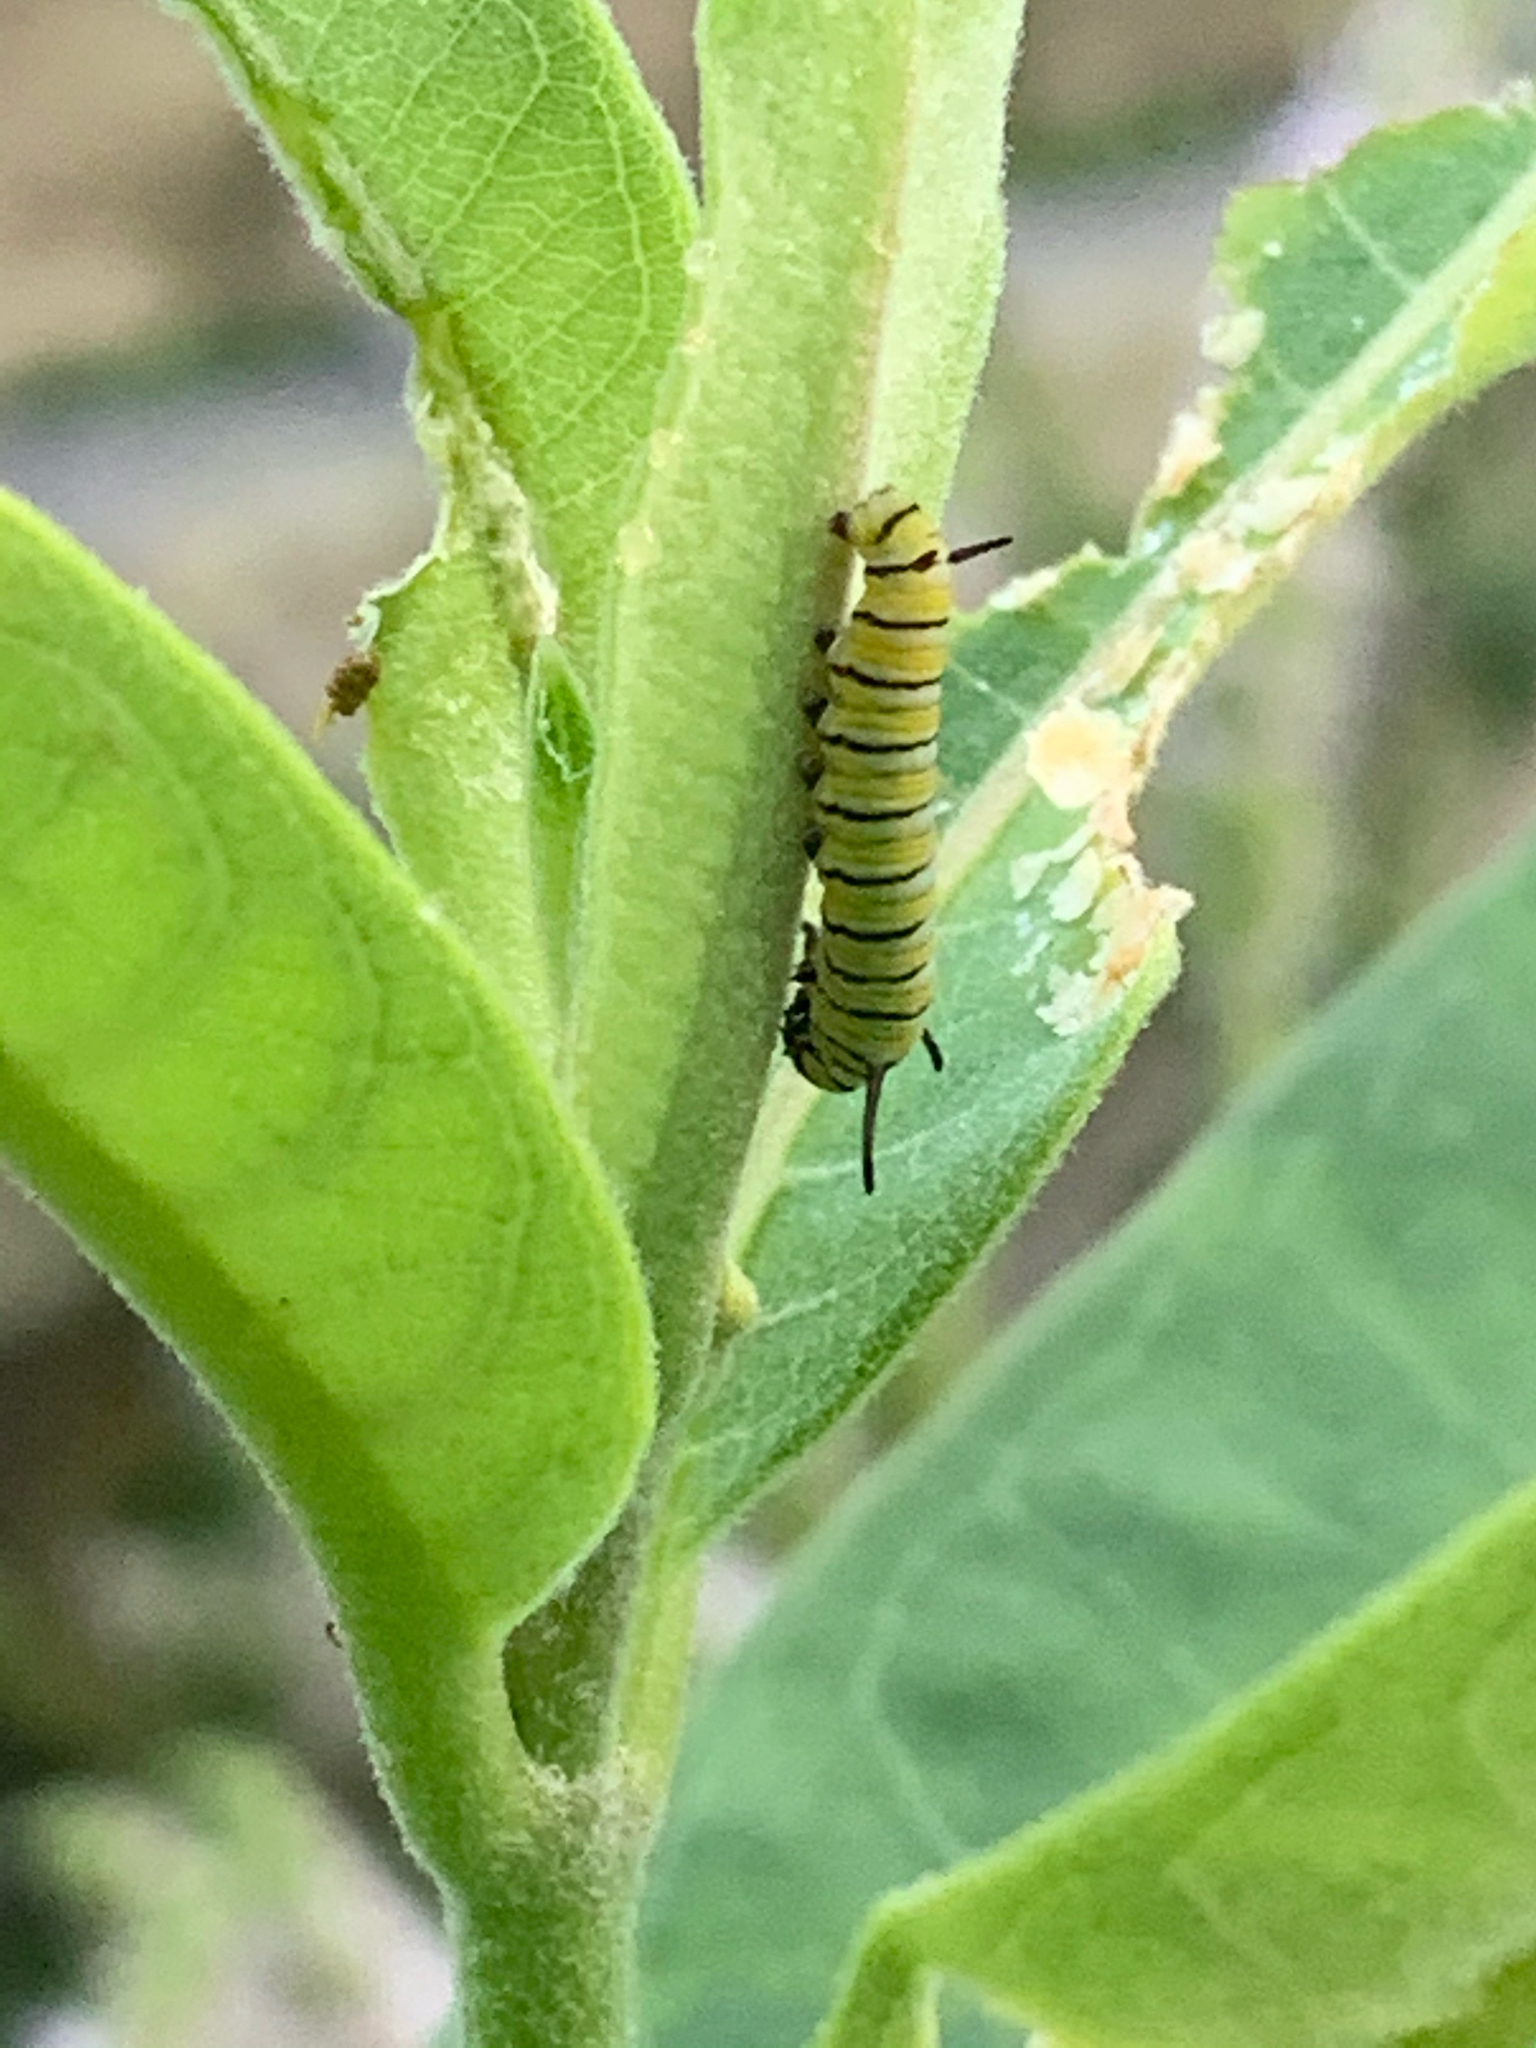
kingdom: Animalia
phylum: Arthropoda
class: Insecta
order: Lepidoptera
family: Nymphalidae
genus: Danaus
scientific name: Danaus plexippus
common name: Monarch
